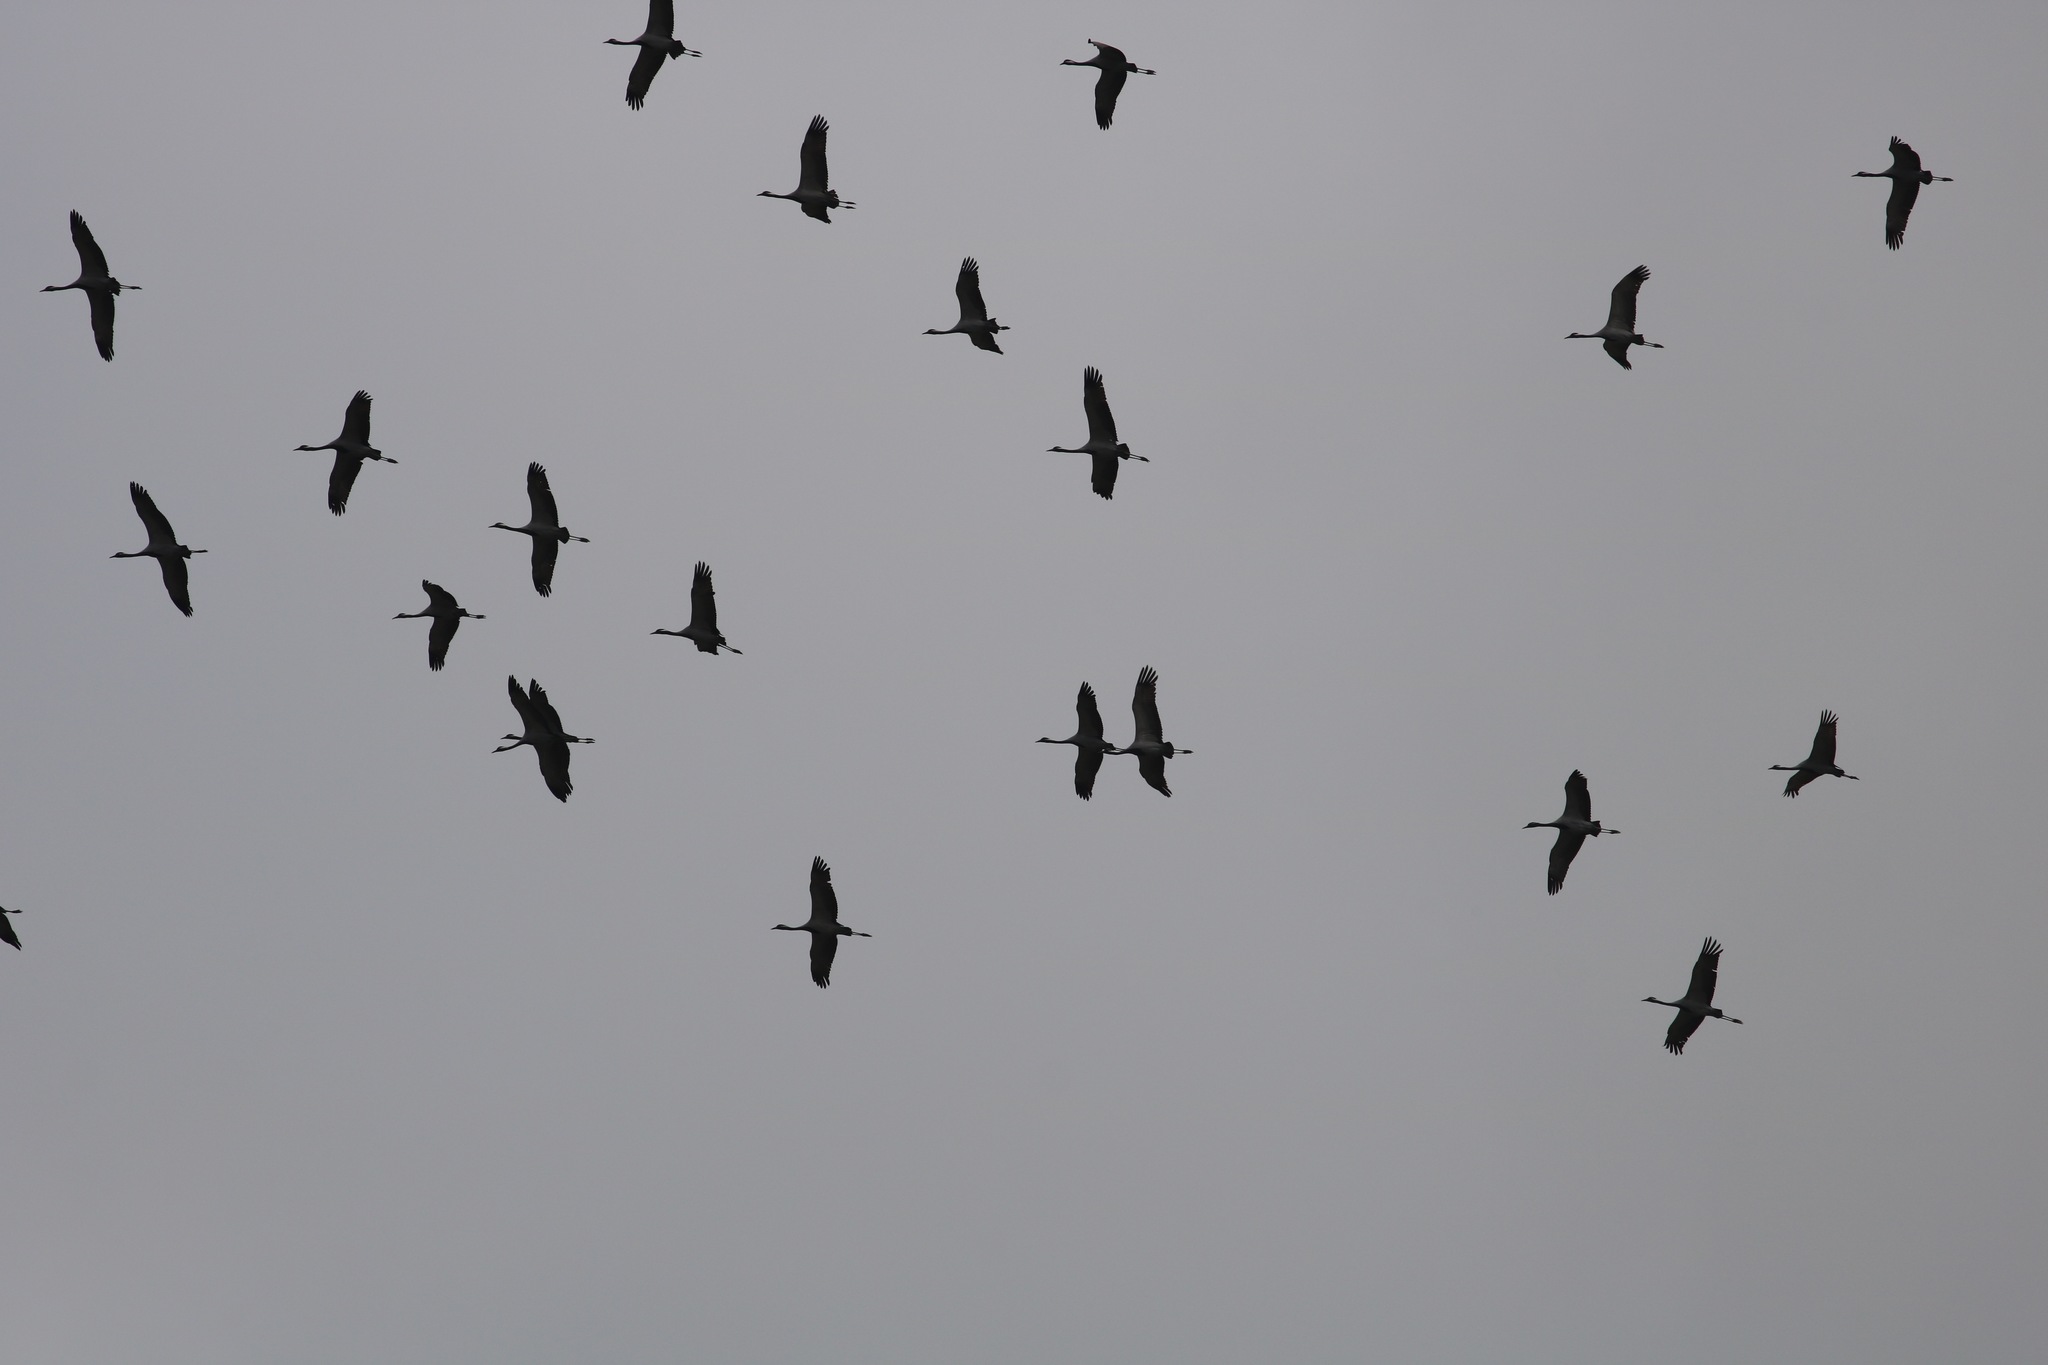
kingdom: Animalia
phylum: Chordata
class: Aves
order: Gruiformes
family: Gruidae
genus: Anthropoides
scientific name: Anthropoides virgo
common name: Demoiselle crane
